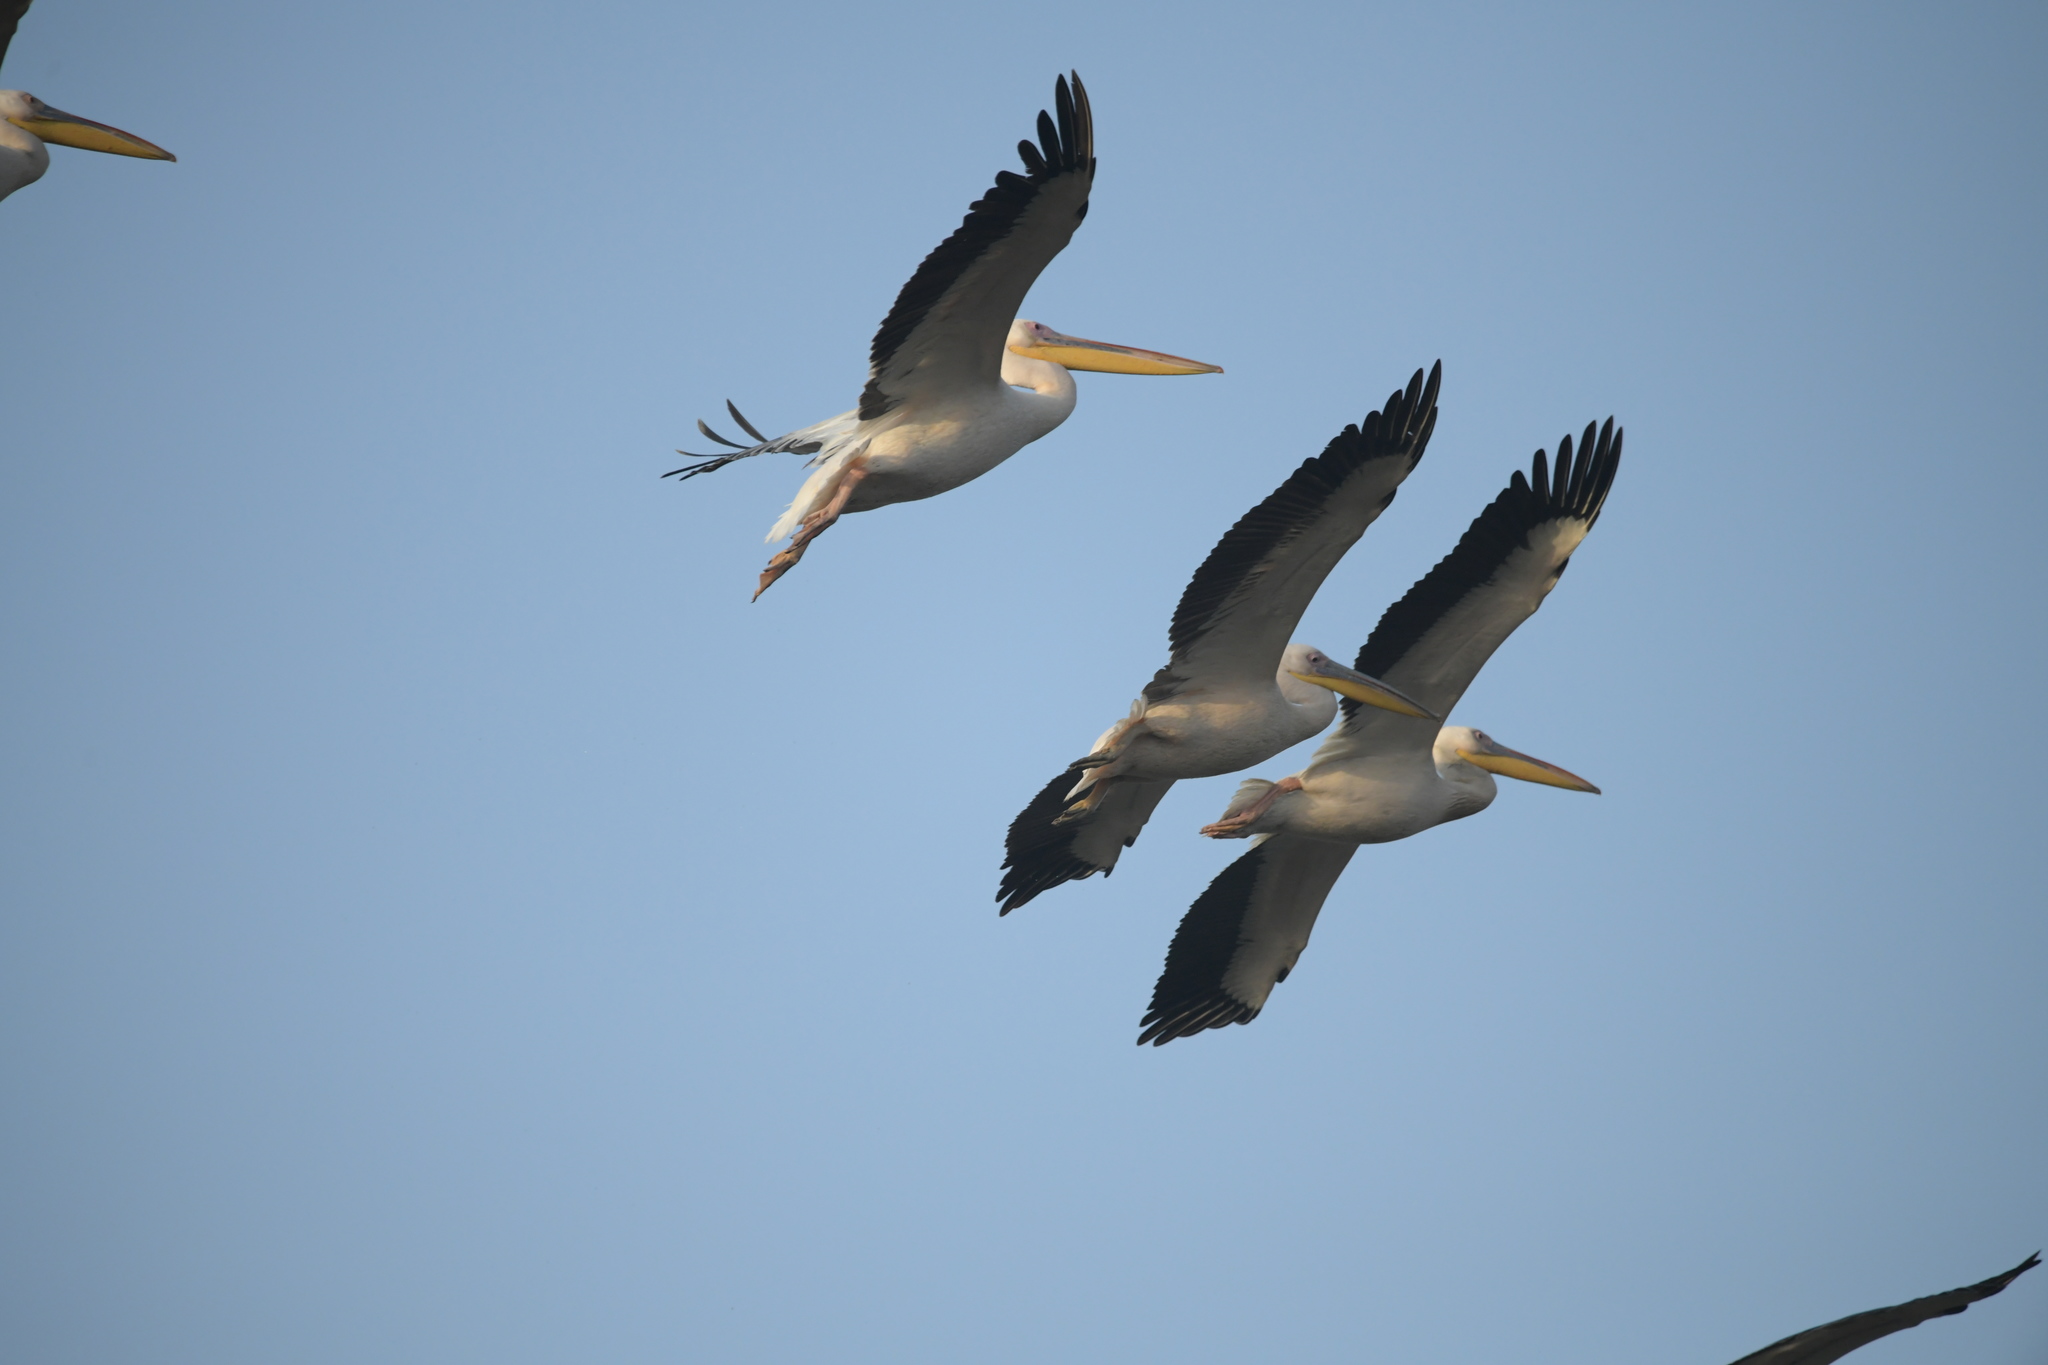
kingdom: Animalia
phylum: Chordata
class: Aves
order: Pelecaniformes
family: Pelecanidae
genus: Pelecanus
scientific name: Pelecanus onocrotalus
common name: Great white pelican
